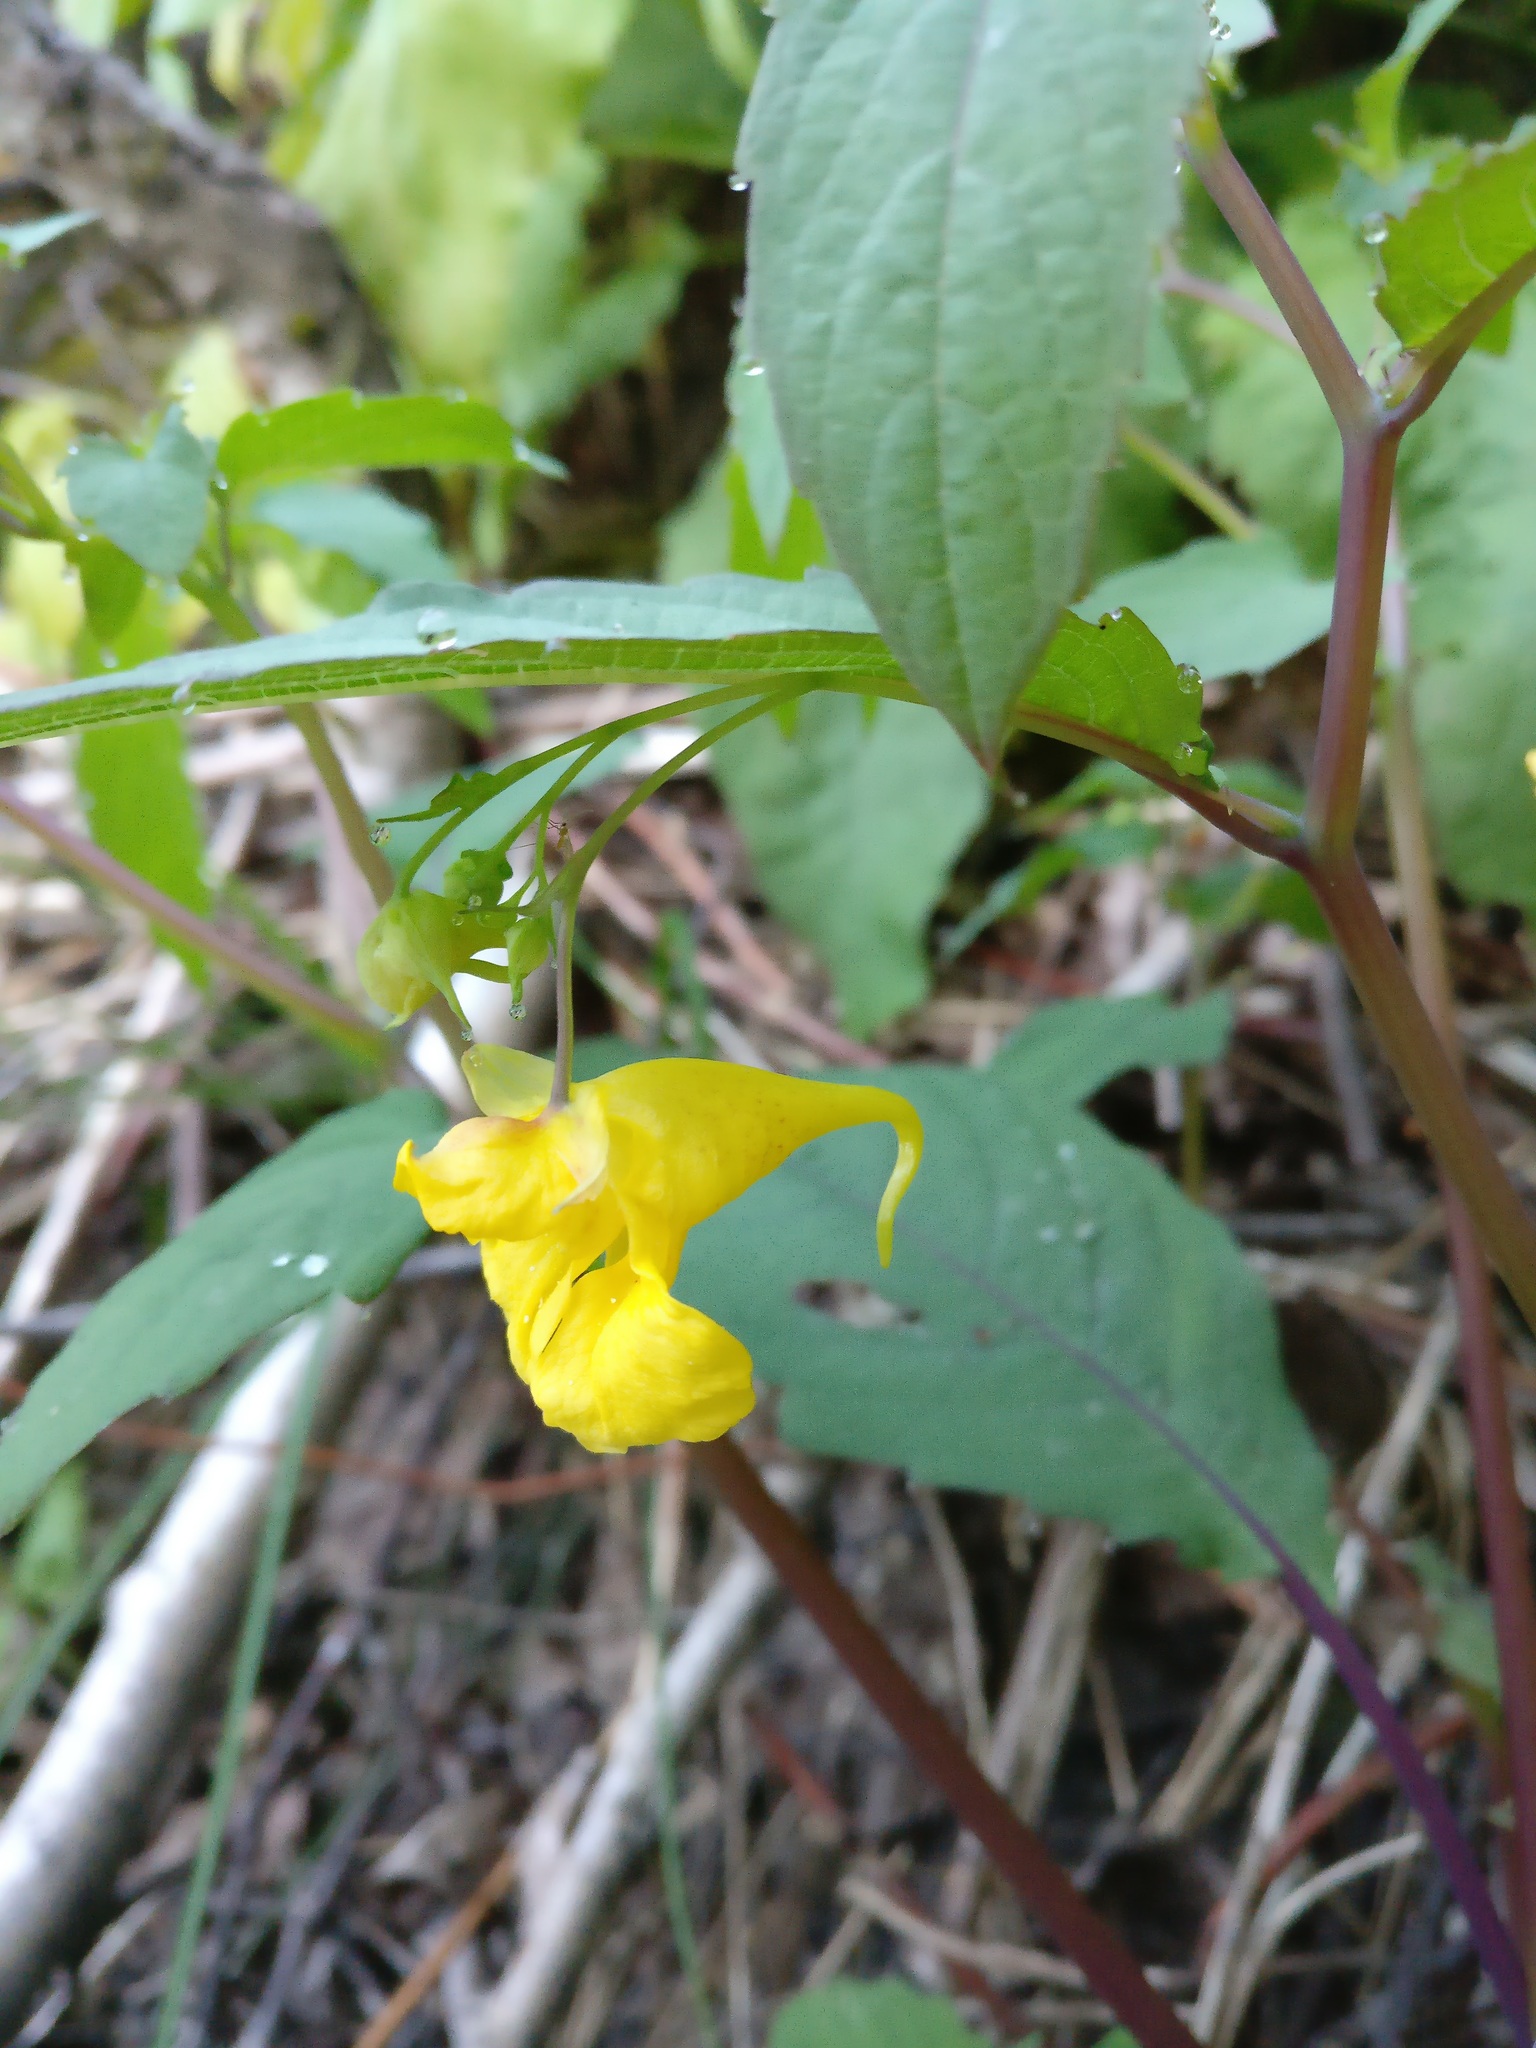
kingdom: Plantae
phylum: Tracheophyta
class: Magnoliopsida
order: Ericales
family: Balsaminaceae
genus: Impatiens
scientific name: Impatiens noli-tangere
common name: Touch-me-not balsam
